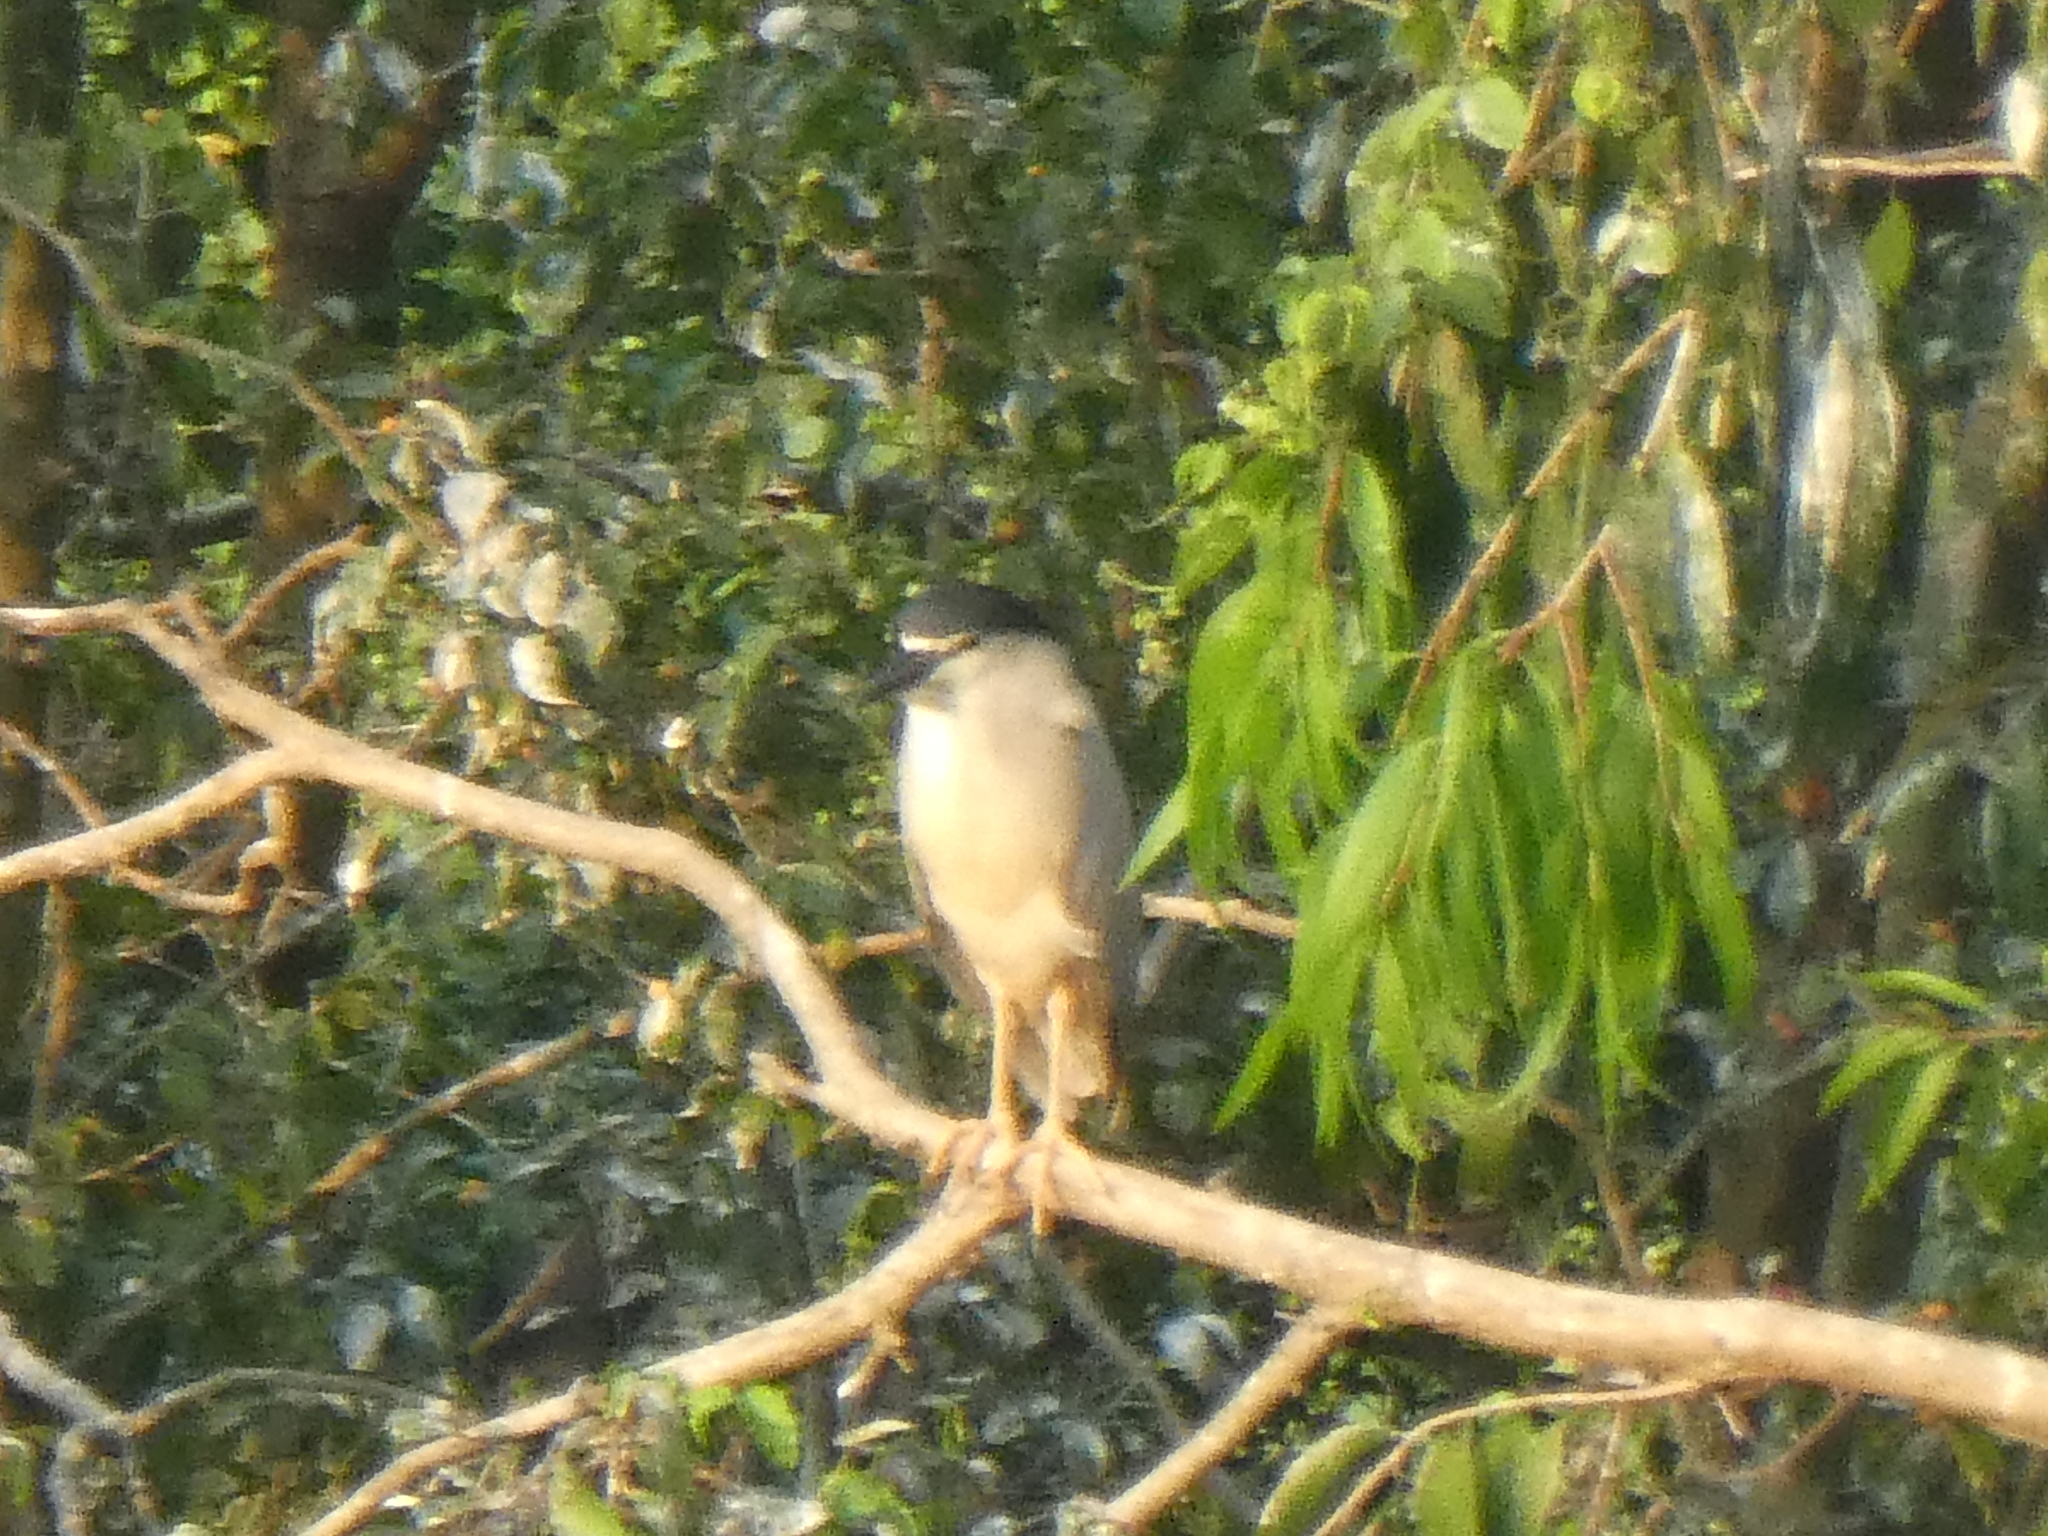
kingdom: Animalia
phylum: Chordata
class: Aves
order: Pelecaniformes
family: Ardeidae
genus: Nycticorax
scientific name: Nycticorax nycticorax
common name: Black-crowned night heron
